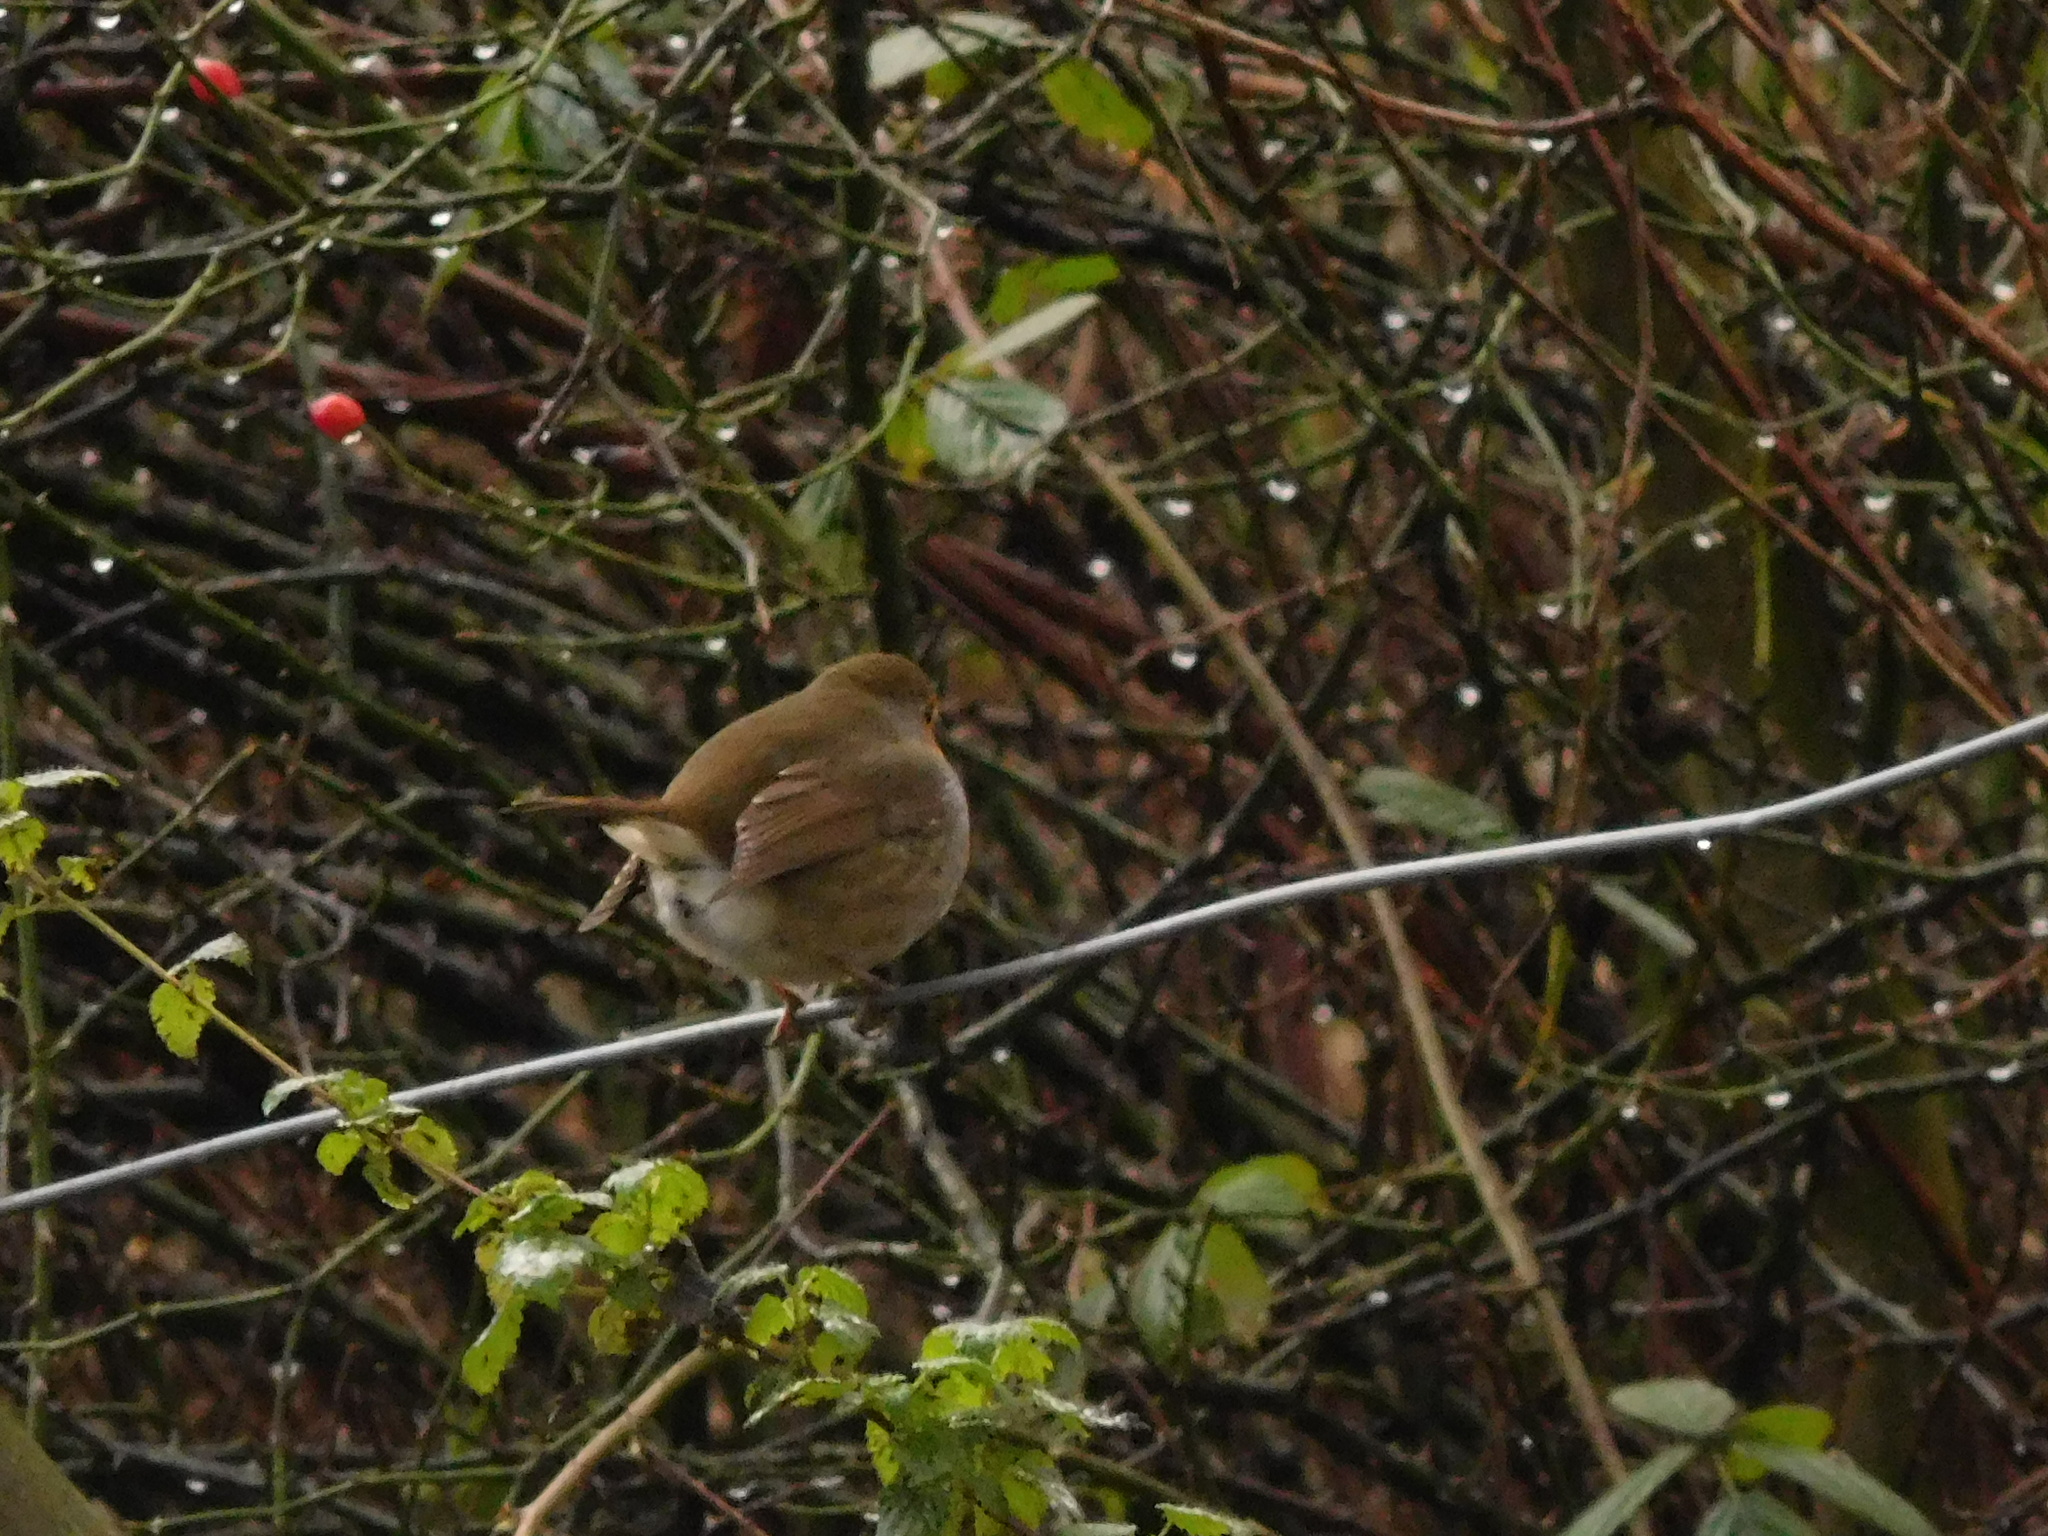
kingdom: Animalia
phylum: Chordata
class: Aves
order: Passeriformes
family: Muscicapidae
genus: Erithacus
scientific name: Erithacus rubecula
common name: European robin
